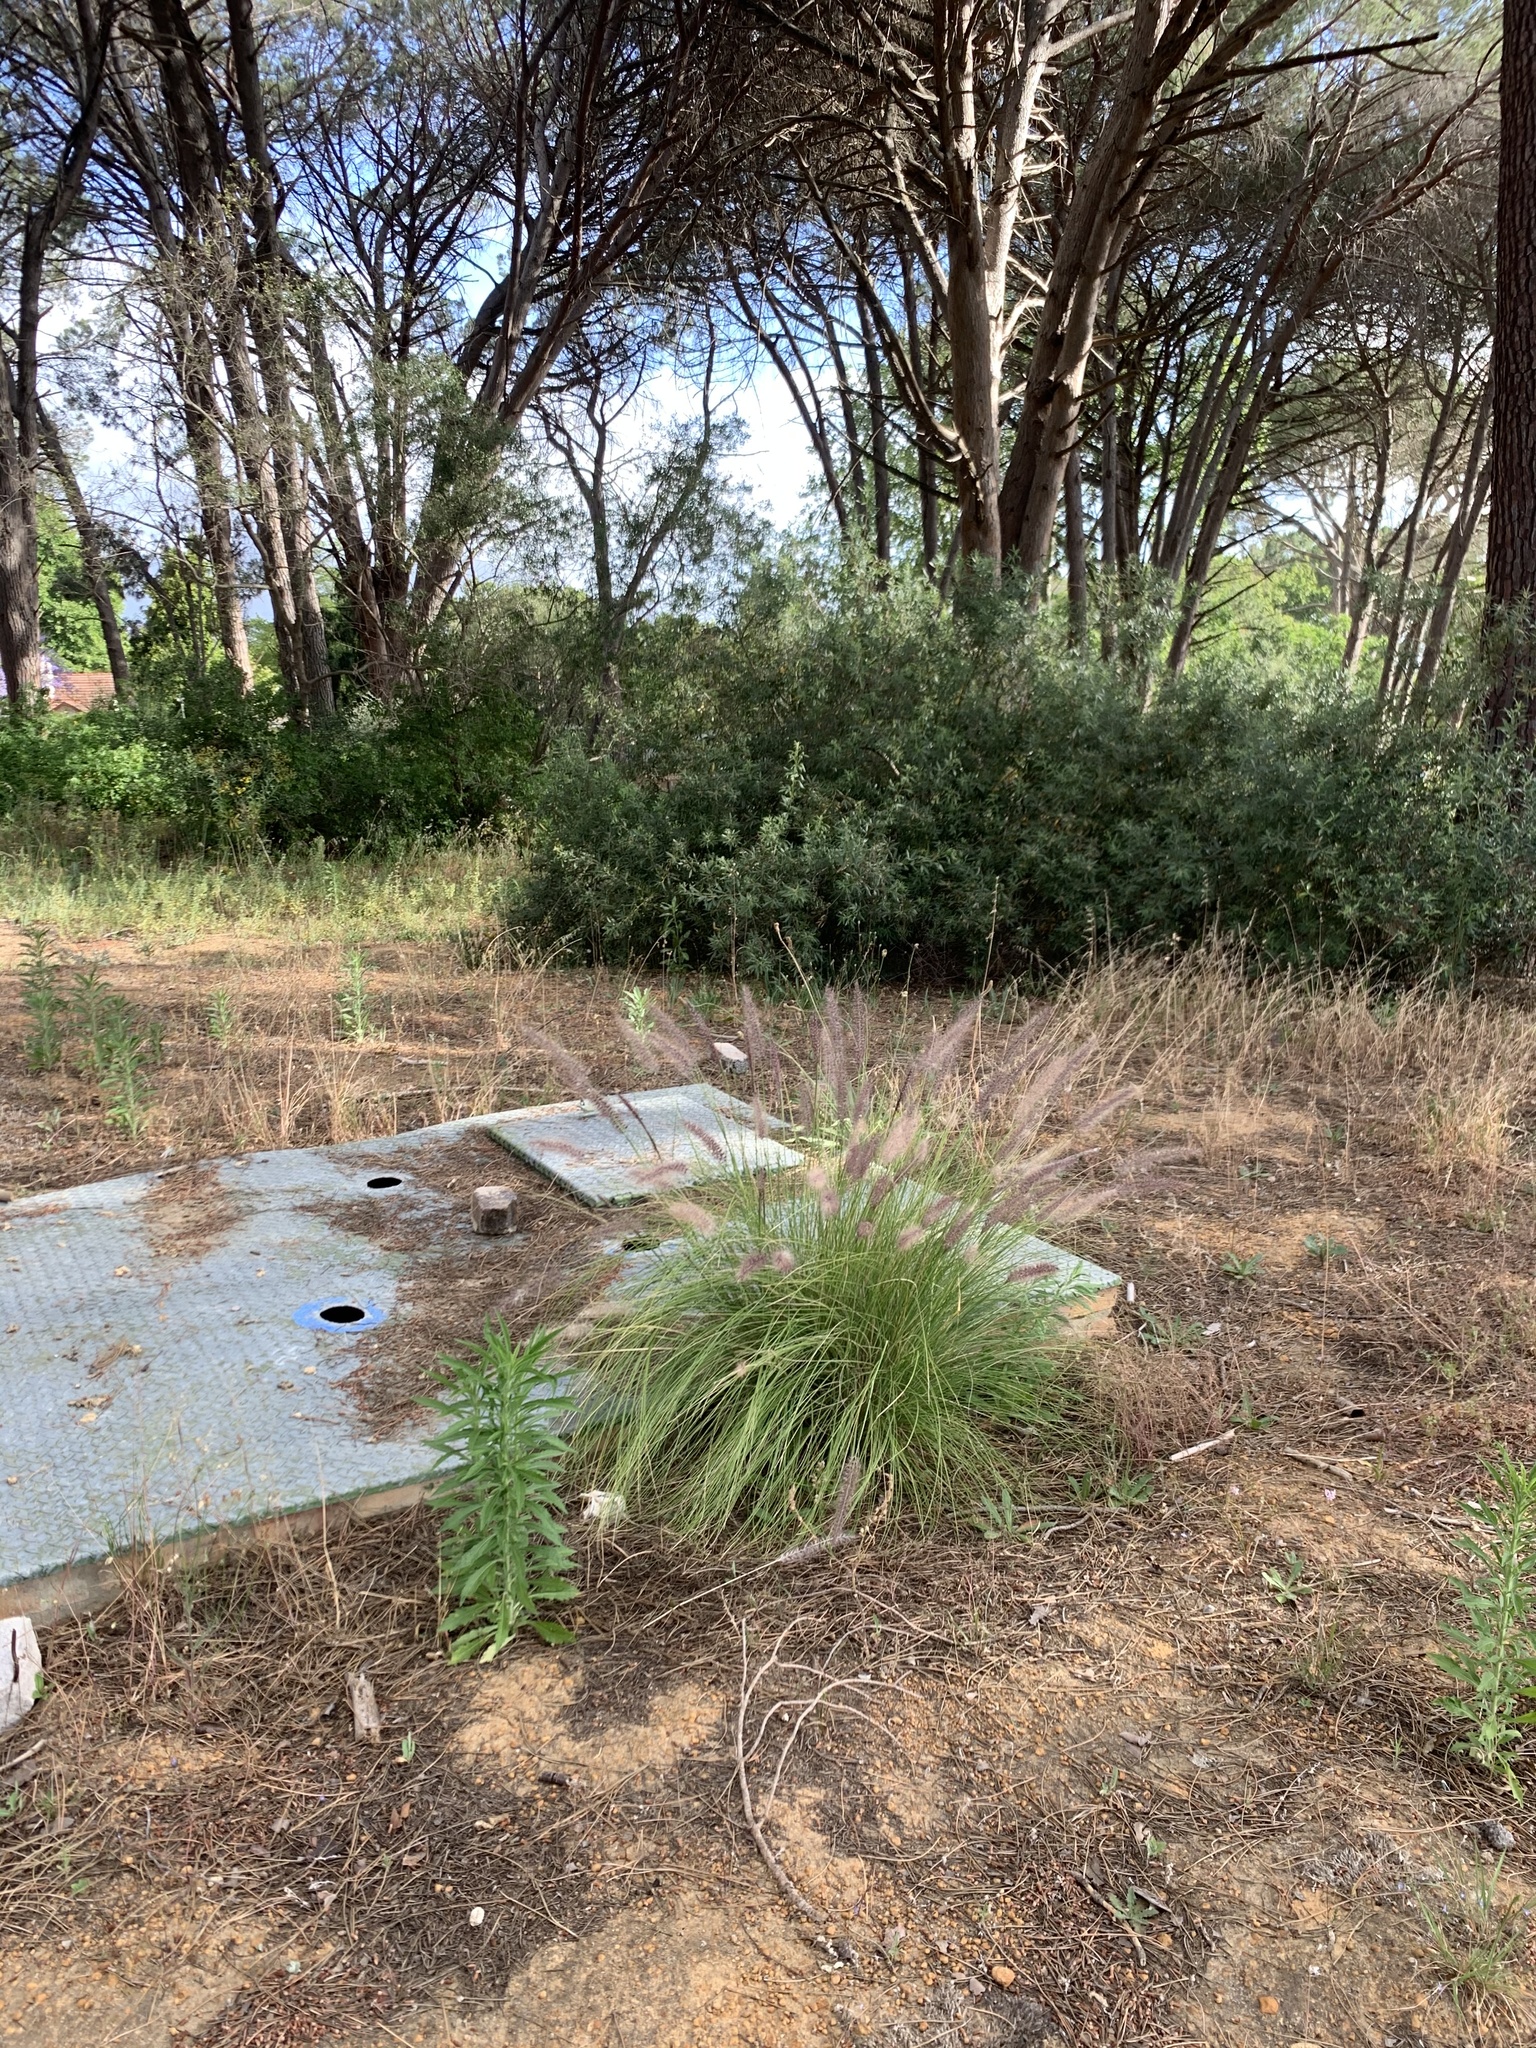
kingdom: Plantae
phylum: Tracheophyta
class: Liliopsida
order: Poales
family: Poaceae
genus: Cenchrus
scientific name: Cenchrus setaceus
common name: Crimson fountaingrass
